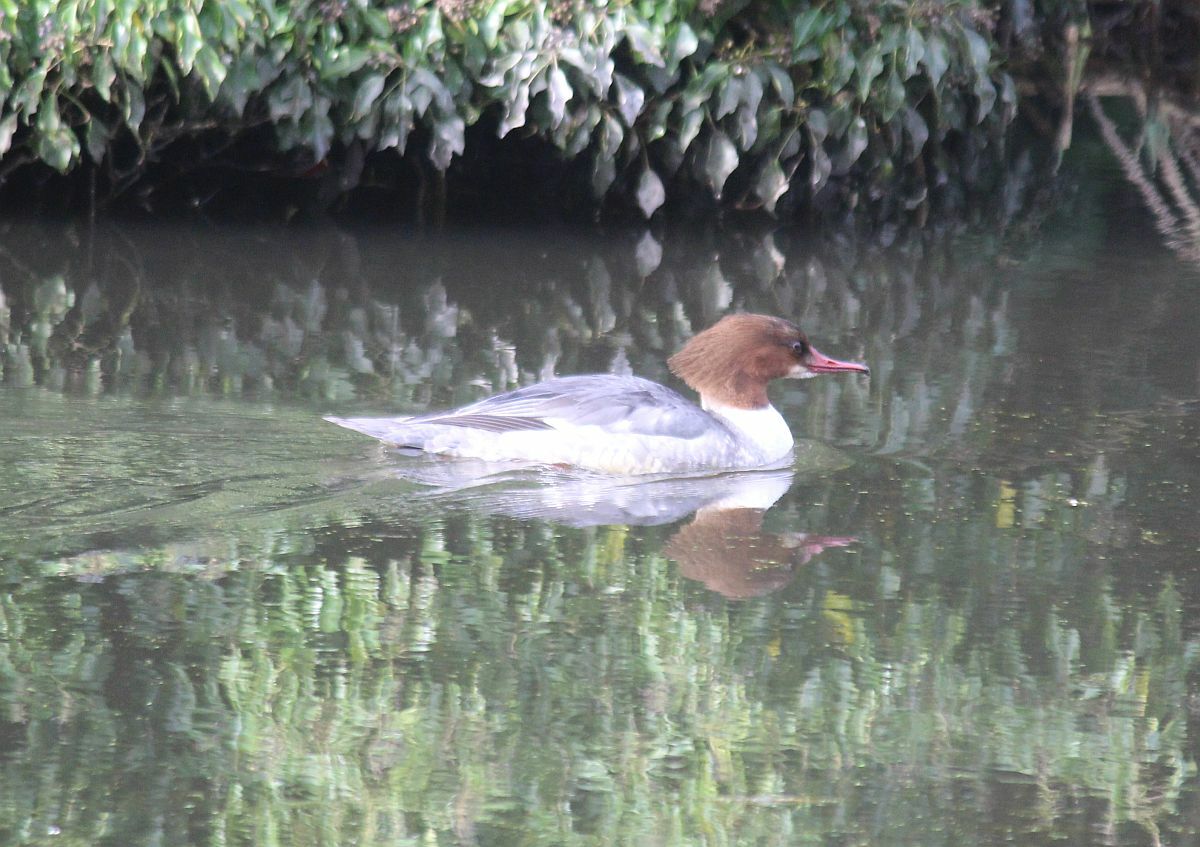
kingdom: Animalia
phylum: Chordata
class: Aves
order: Anseriformes
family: Anatidae
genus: Mergus
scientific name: Mergus merganser
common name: Common merganser
